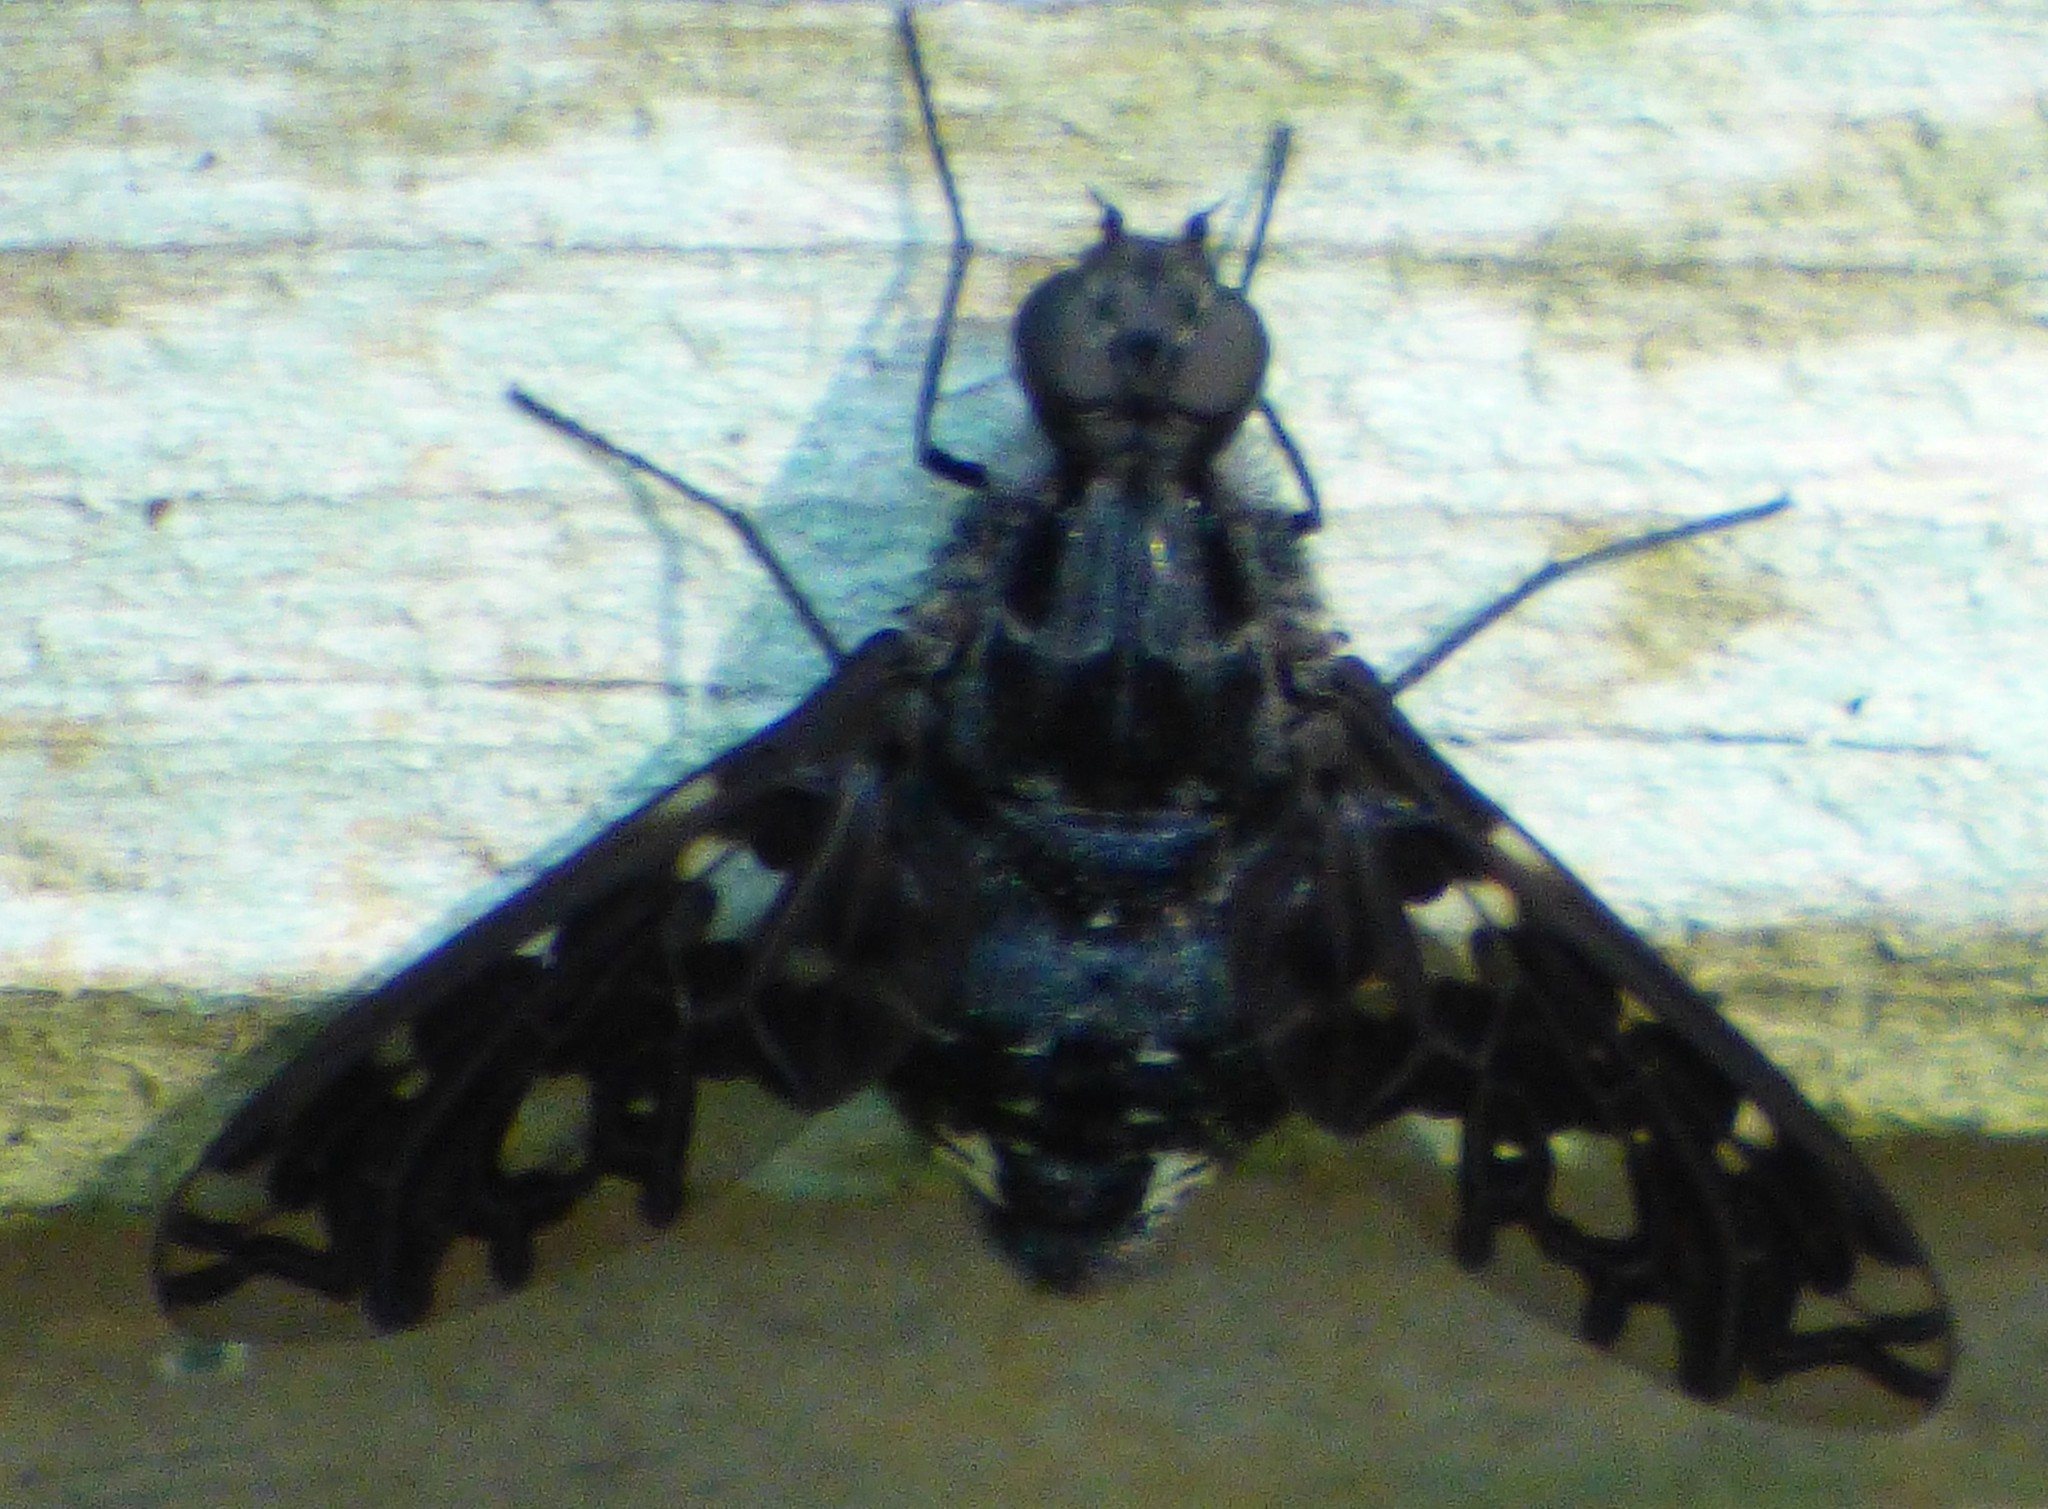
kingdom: Animalia
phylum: Arthropoda
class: Insecta
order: Diptera
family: Bombyliidae
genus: Xenox
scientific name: Xenox tigrinus
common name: Tiger bee fly
